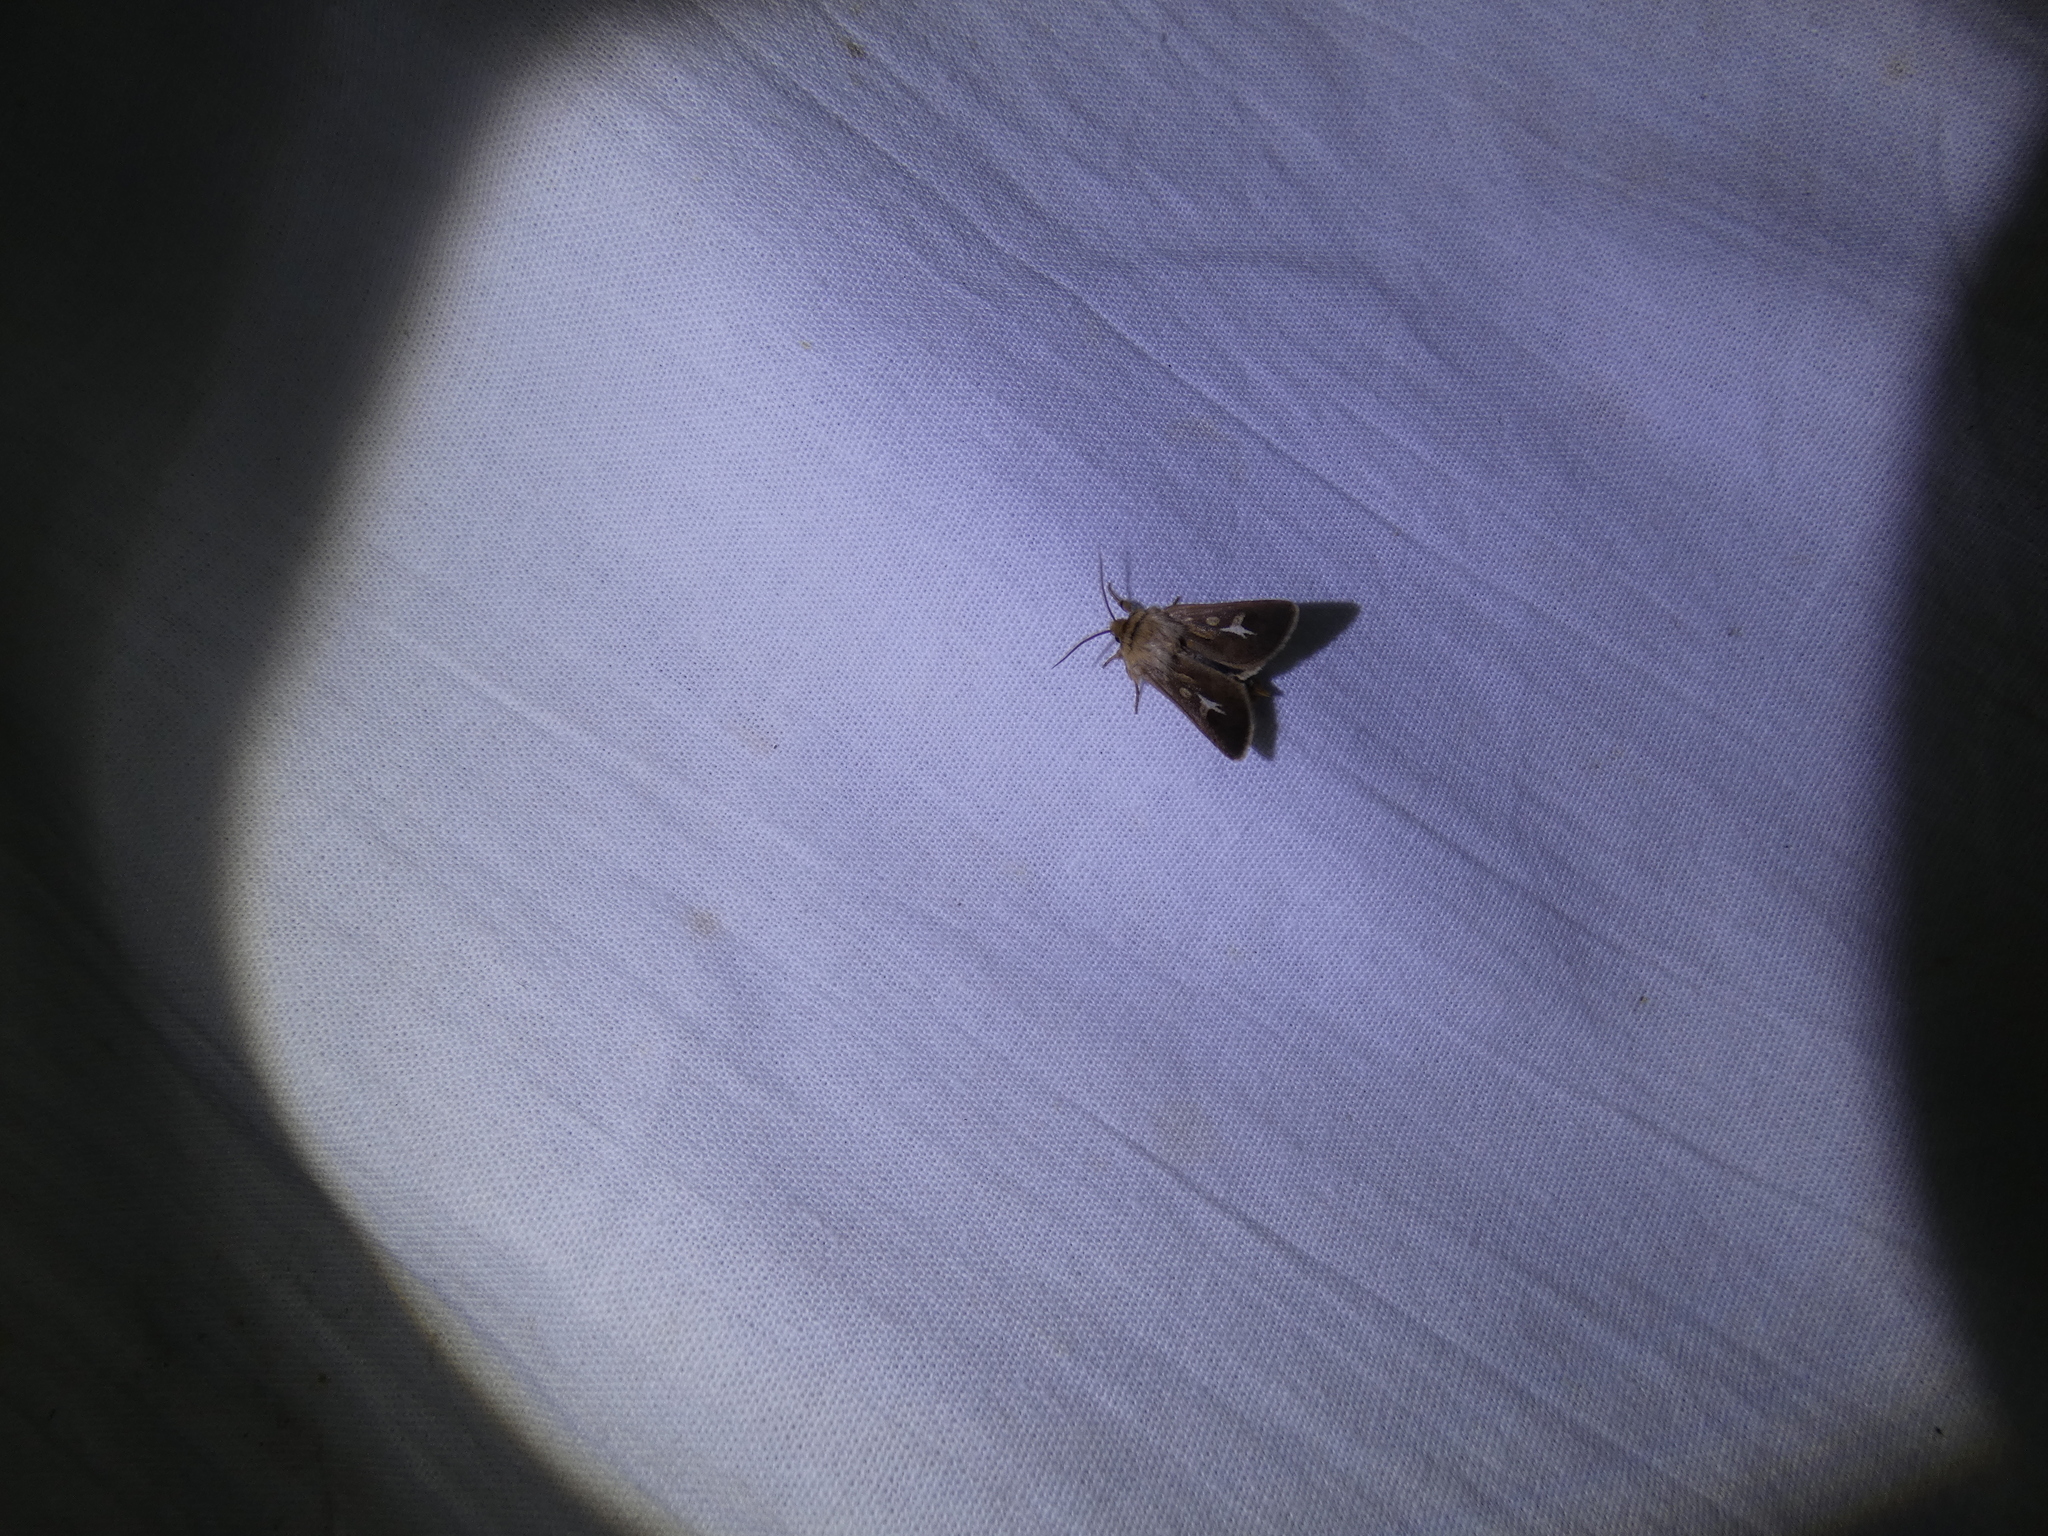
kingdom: Animalia
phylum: Arthropoda
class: Insecta
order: Lepidoptera
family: Noctuidae
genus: Cerapteryx
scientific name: Cerapteryx graminis
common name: Antler moth
